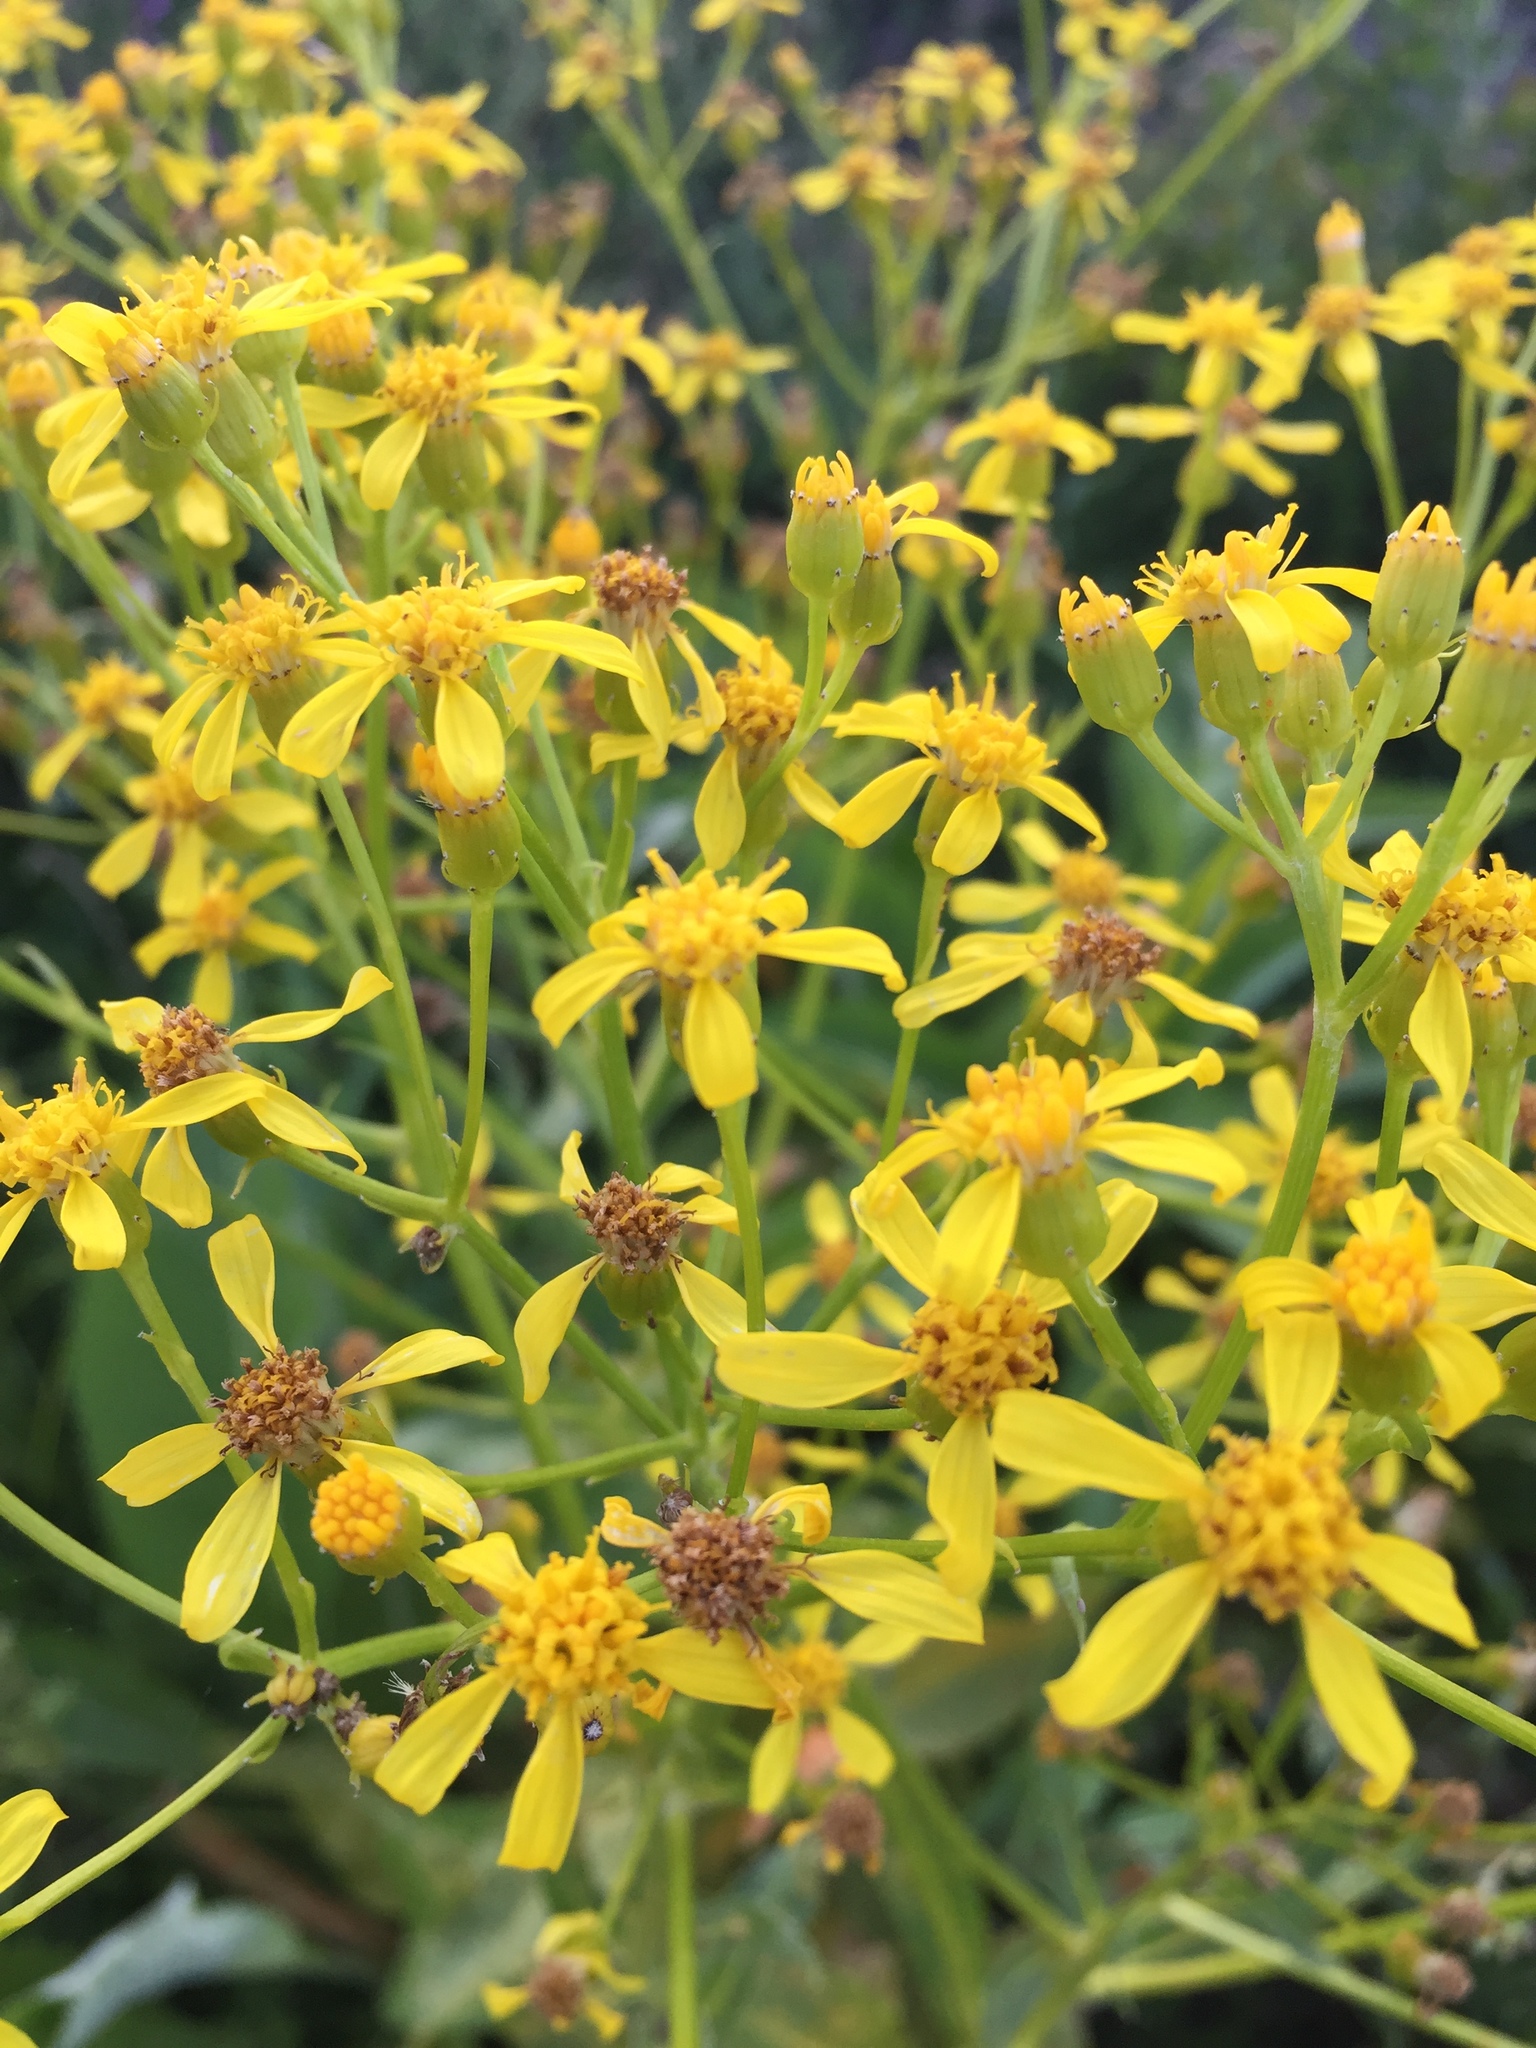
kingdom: Plantae
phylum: Tracheophyta
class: Magnoliopsida
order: Asterales
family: Asteraceae
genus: Senecio
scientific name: Senecio doria
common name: Golden ragwort
